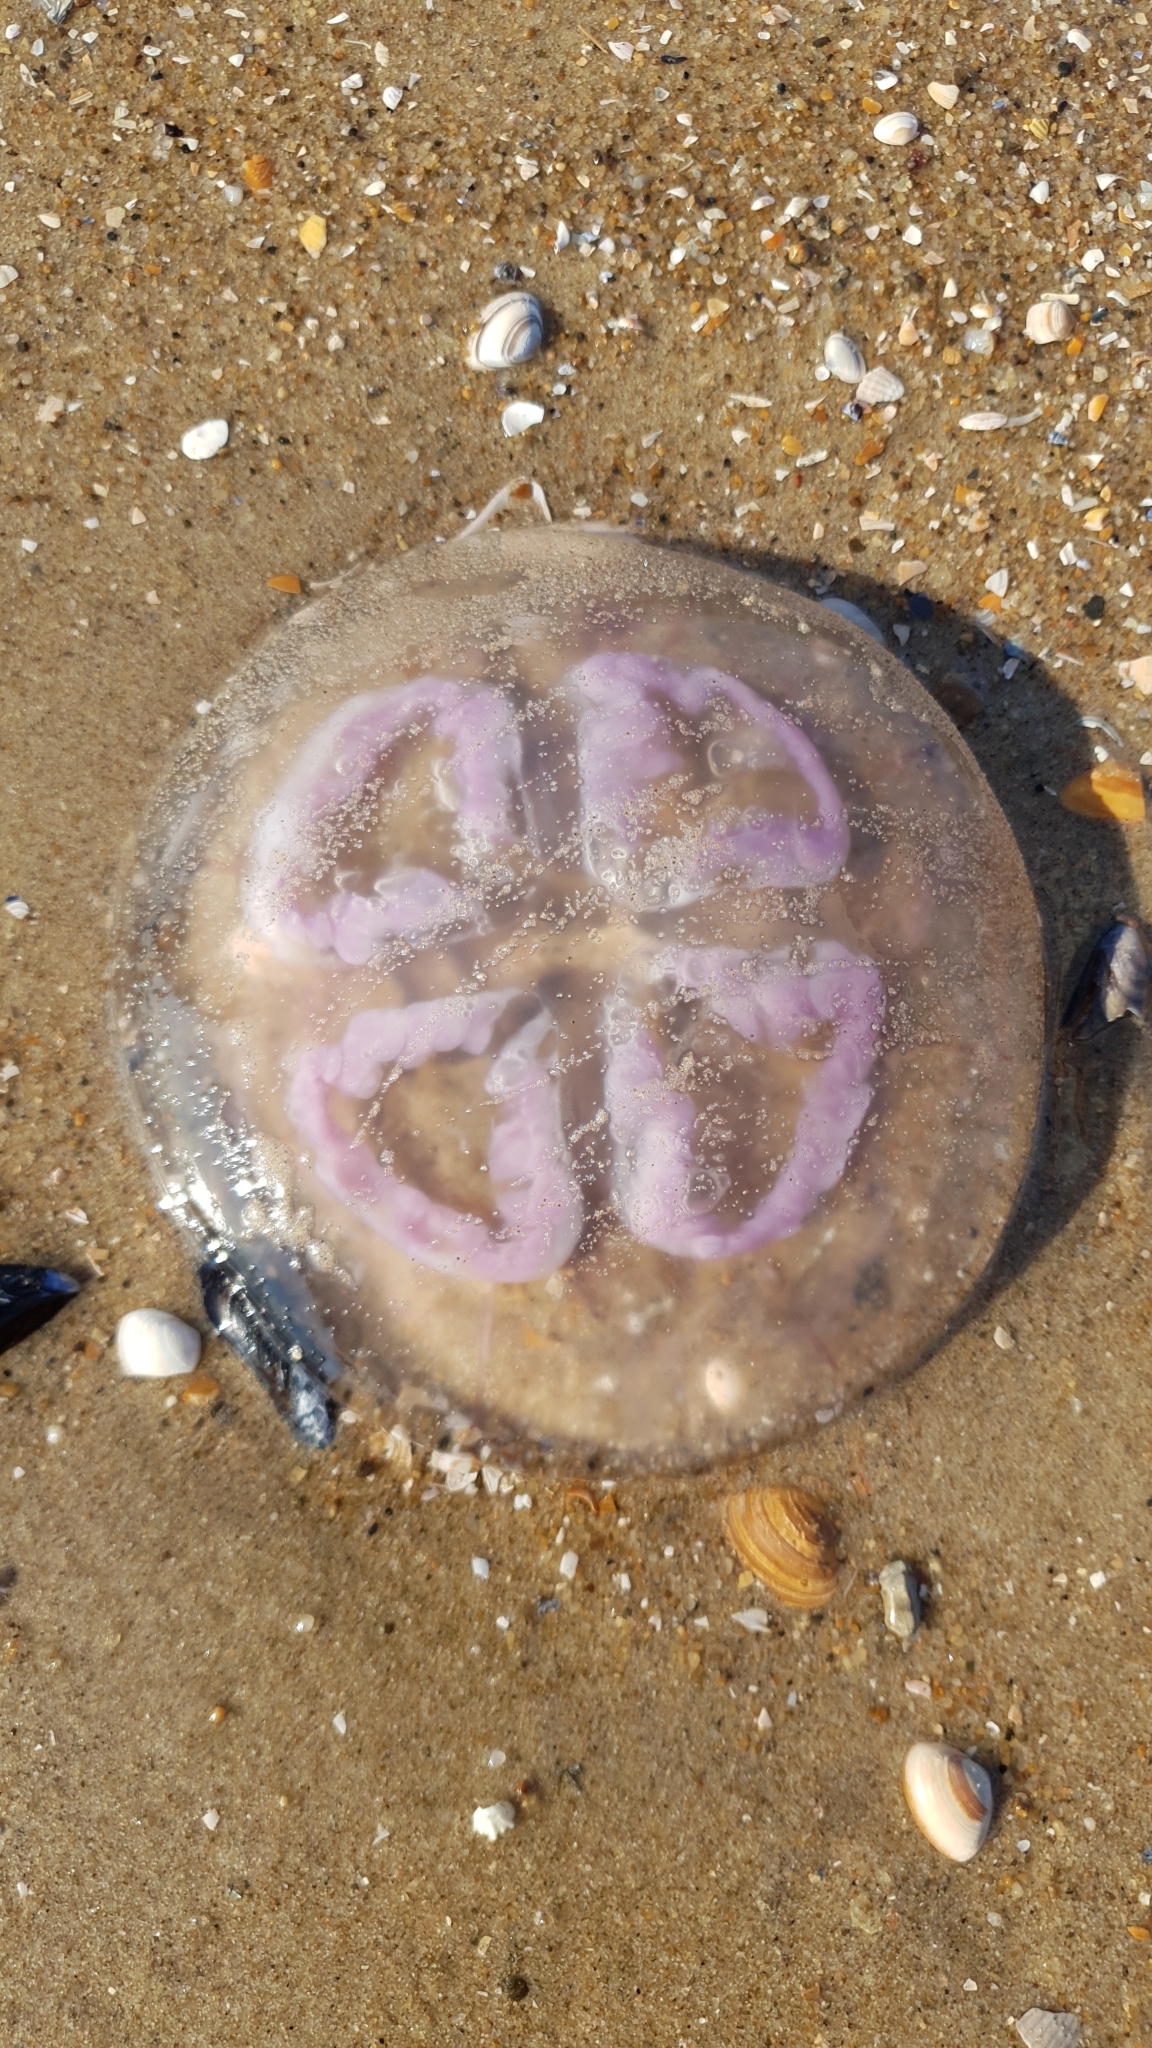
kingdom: Animalia
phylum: Cnidaria
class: Scyphozoa
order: Semaeostomeae
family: Ulmaridae
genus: Aurelia
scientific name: Aurelia aurita
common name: Moon jellyfish
